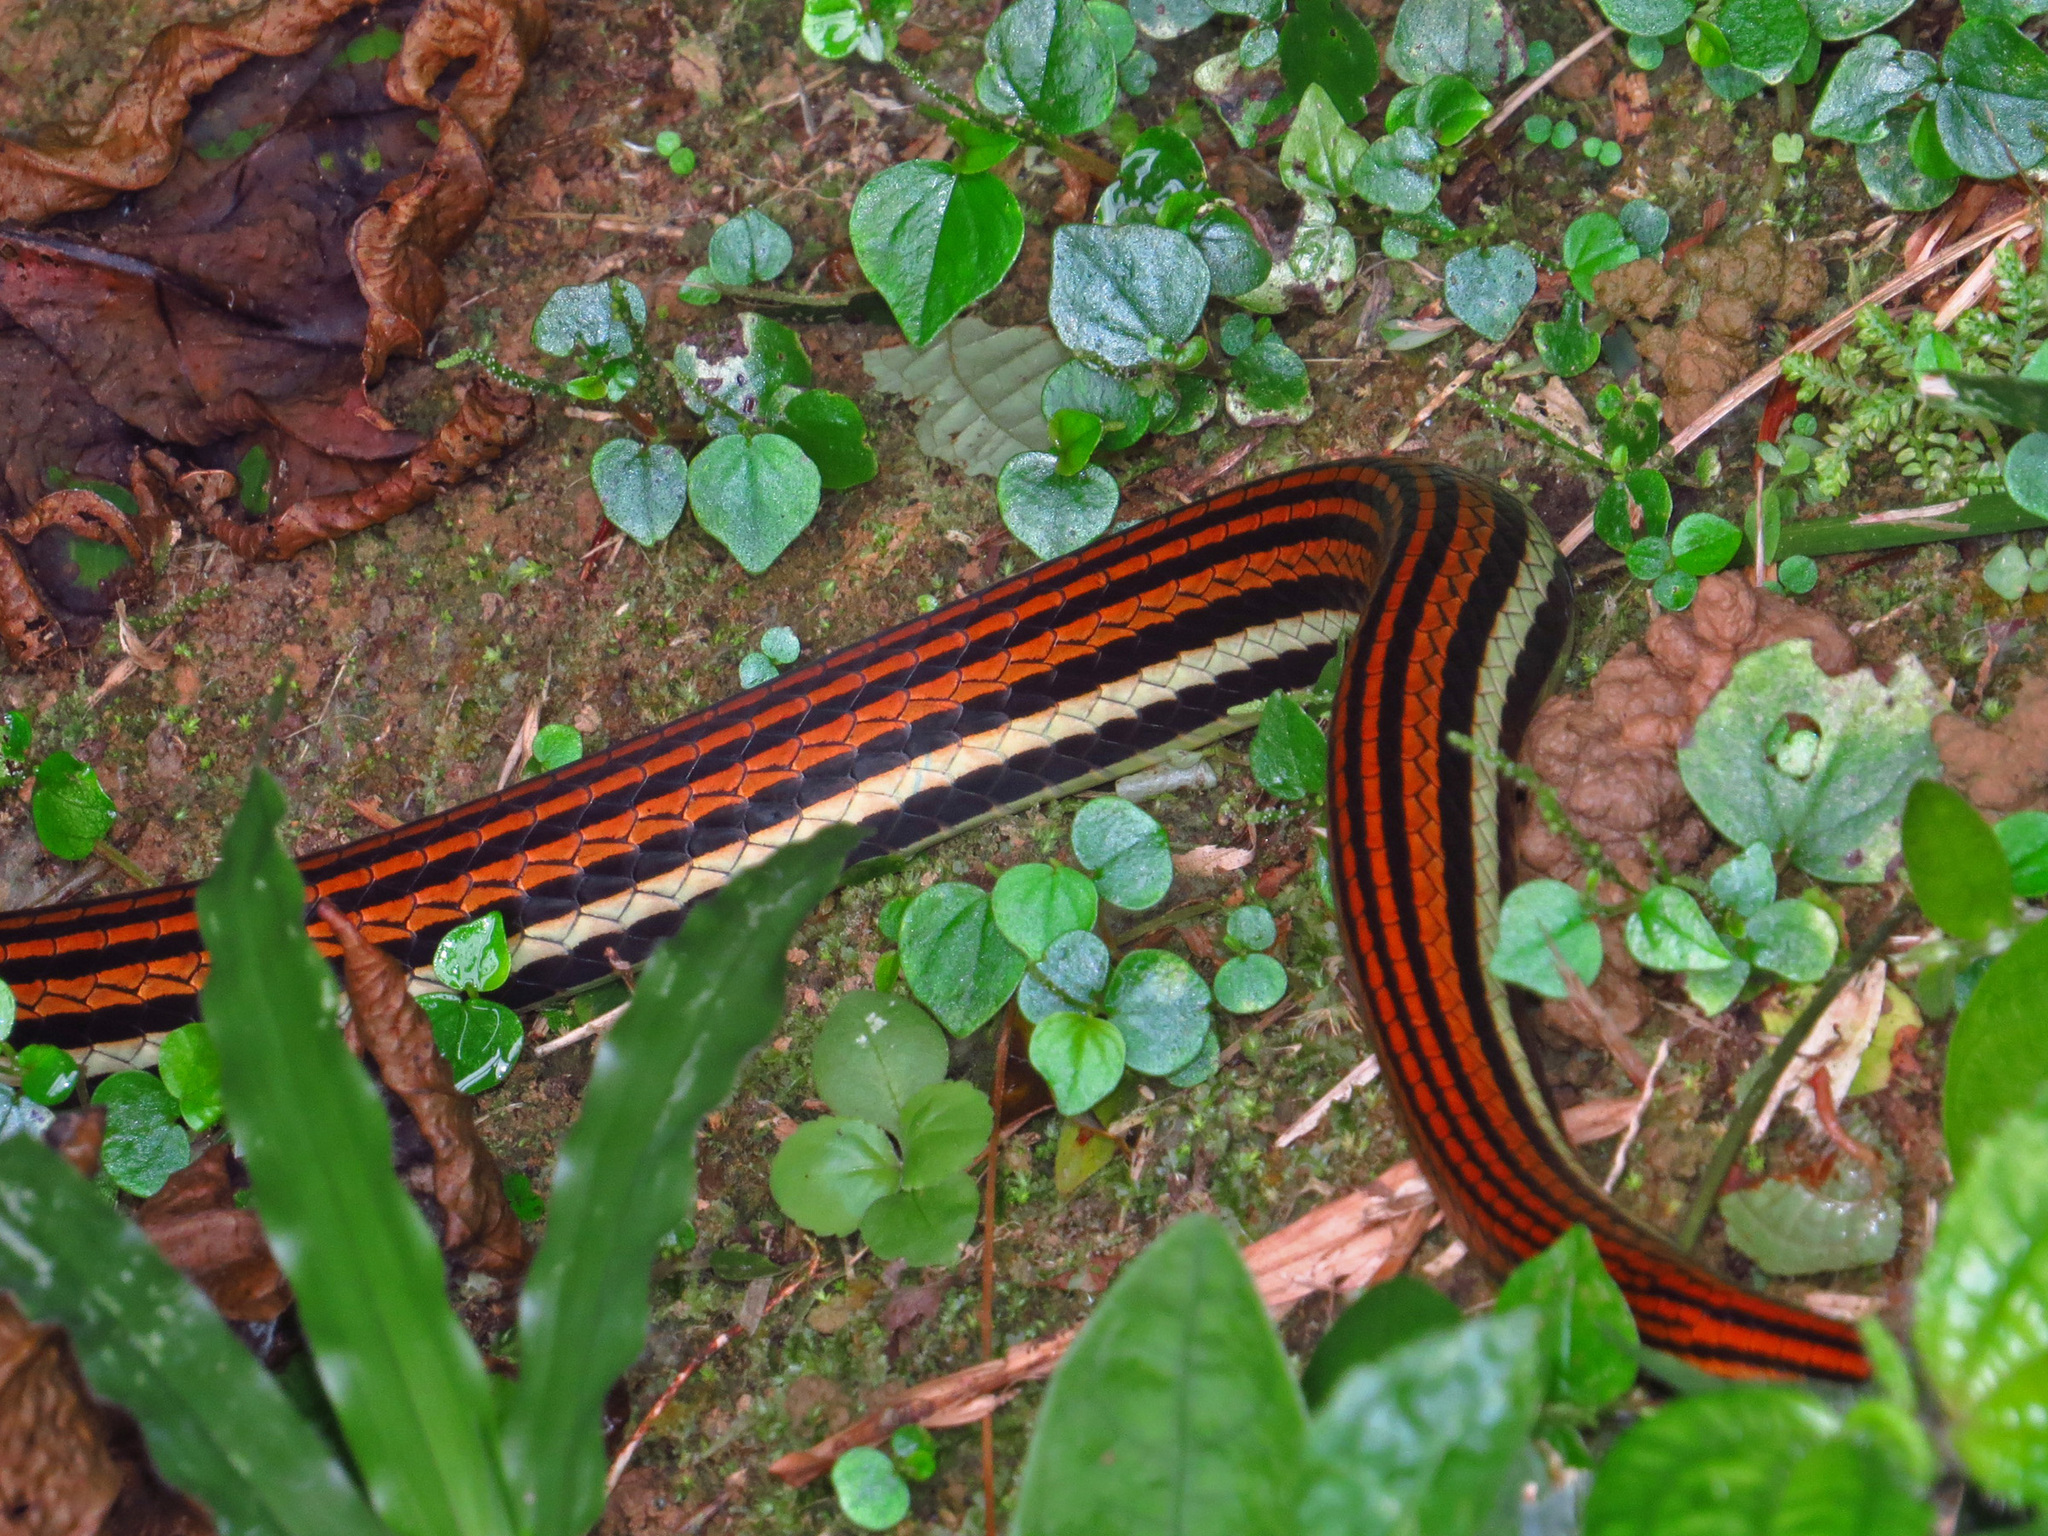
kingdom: Animalia
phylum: Chordata
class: Squamata
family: Colubridae
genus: Dendrelaphis
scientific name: Dendrelaphis caudolineatus
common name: Striped bronzeback
